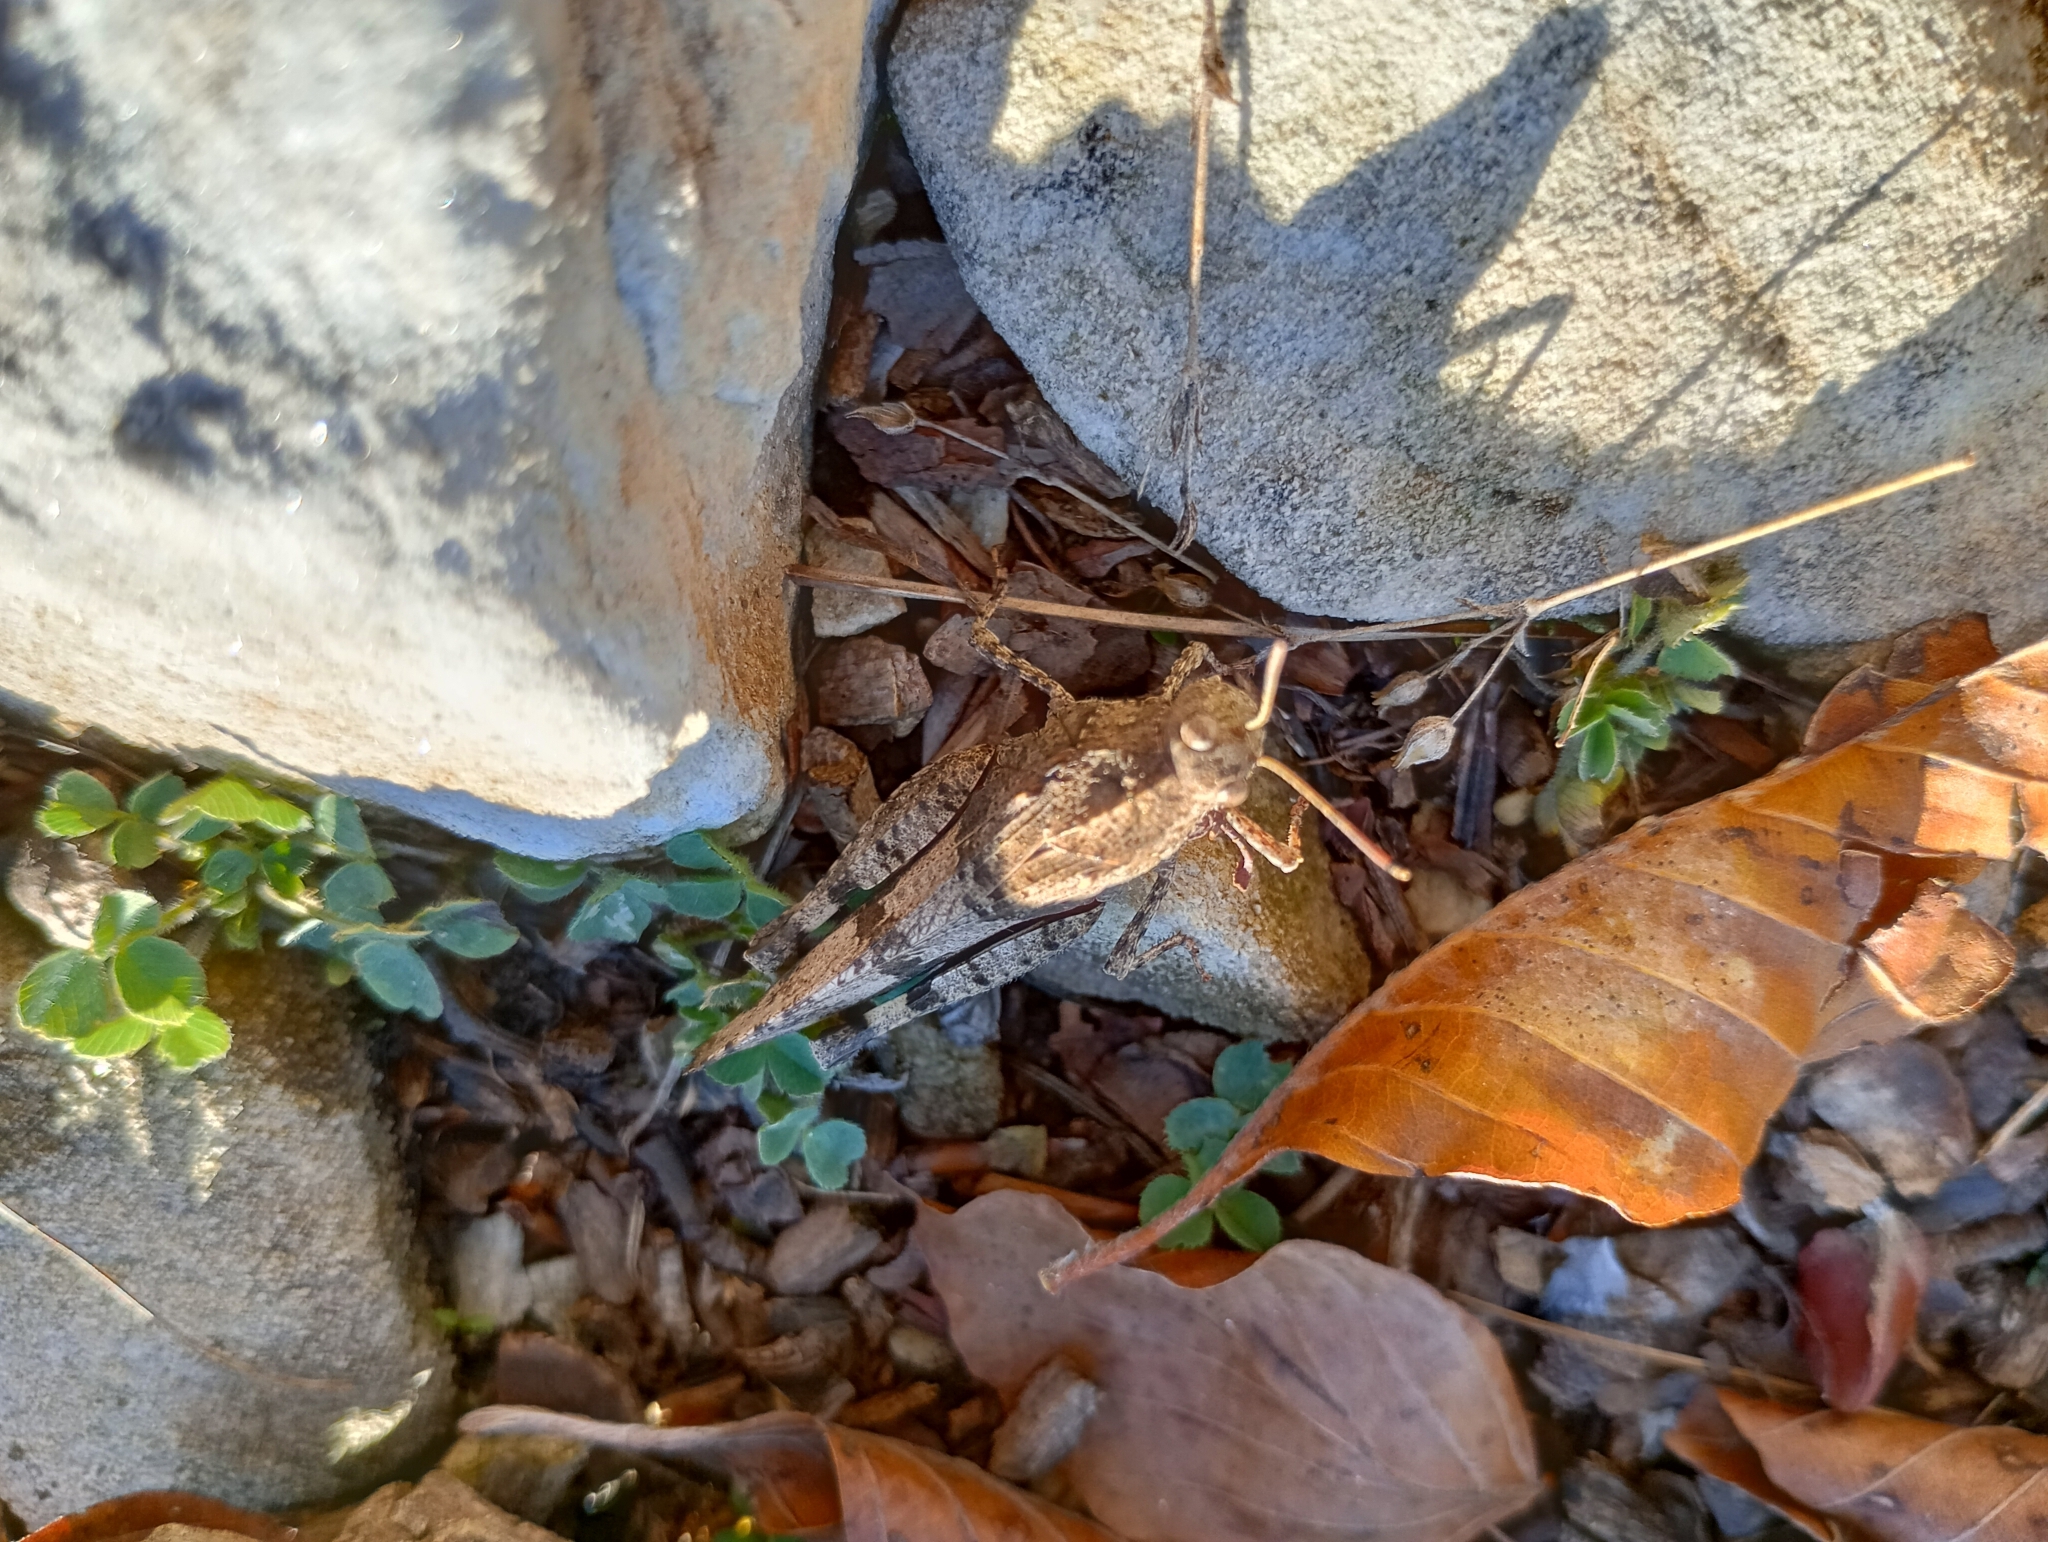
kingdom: Animalia
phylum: Arthropoda
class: Insecta
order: Orthoptera
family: Acrididae
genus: Oedipoda
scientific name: Oedipoda caerulescens
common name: Blue-winged grasshopper
